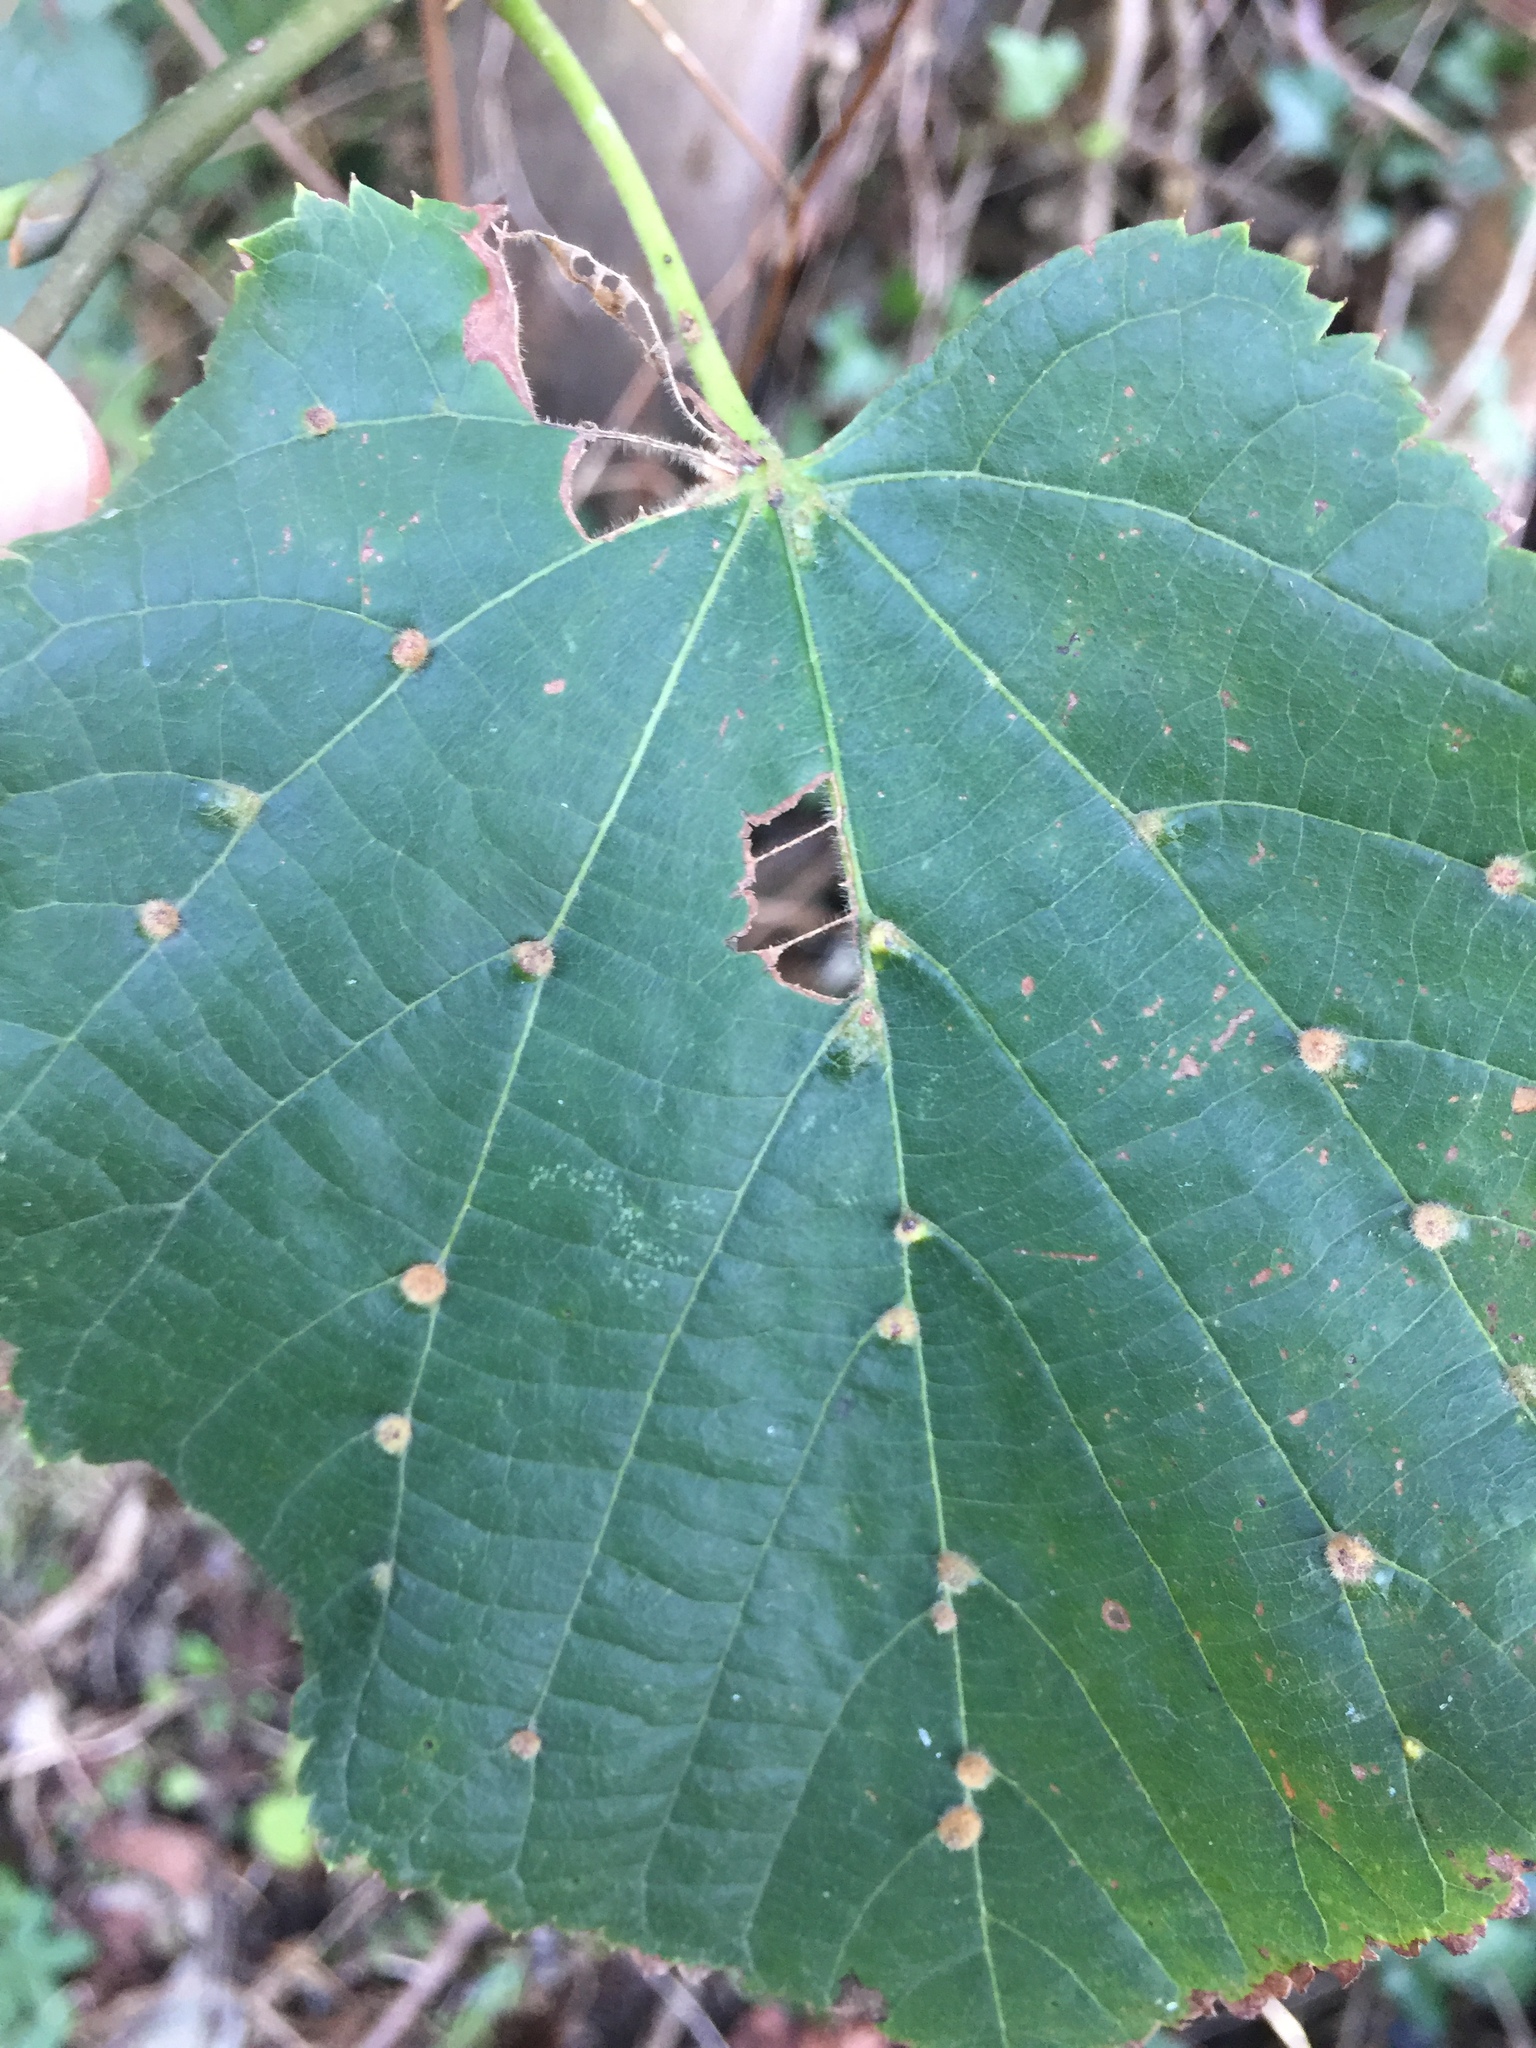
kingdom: Animalia
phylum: Arthropoda
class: Arachnida
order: Trombidiformes
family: Eriophyidae
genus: Eriophyes
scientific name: Eriophyes exilis
